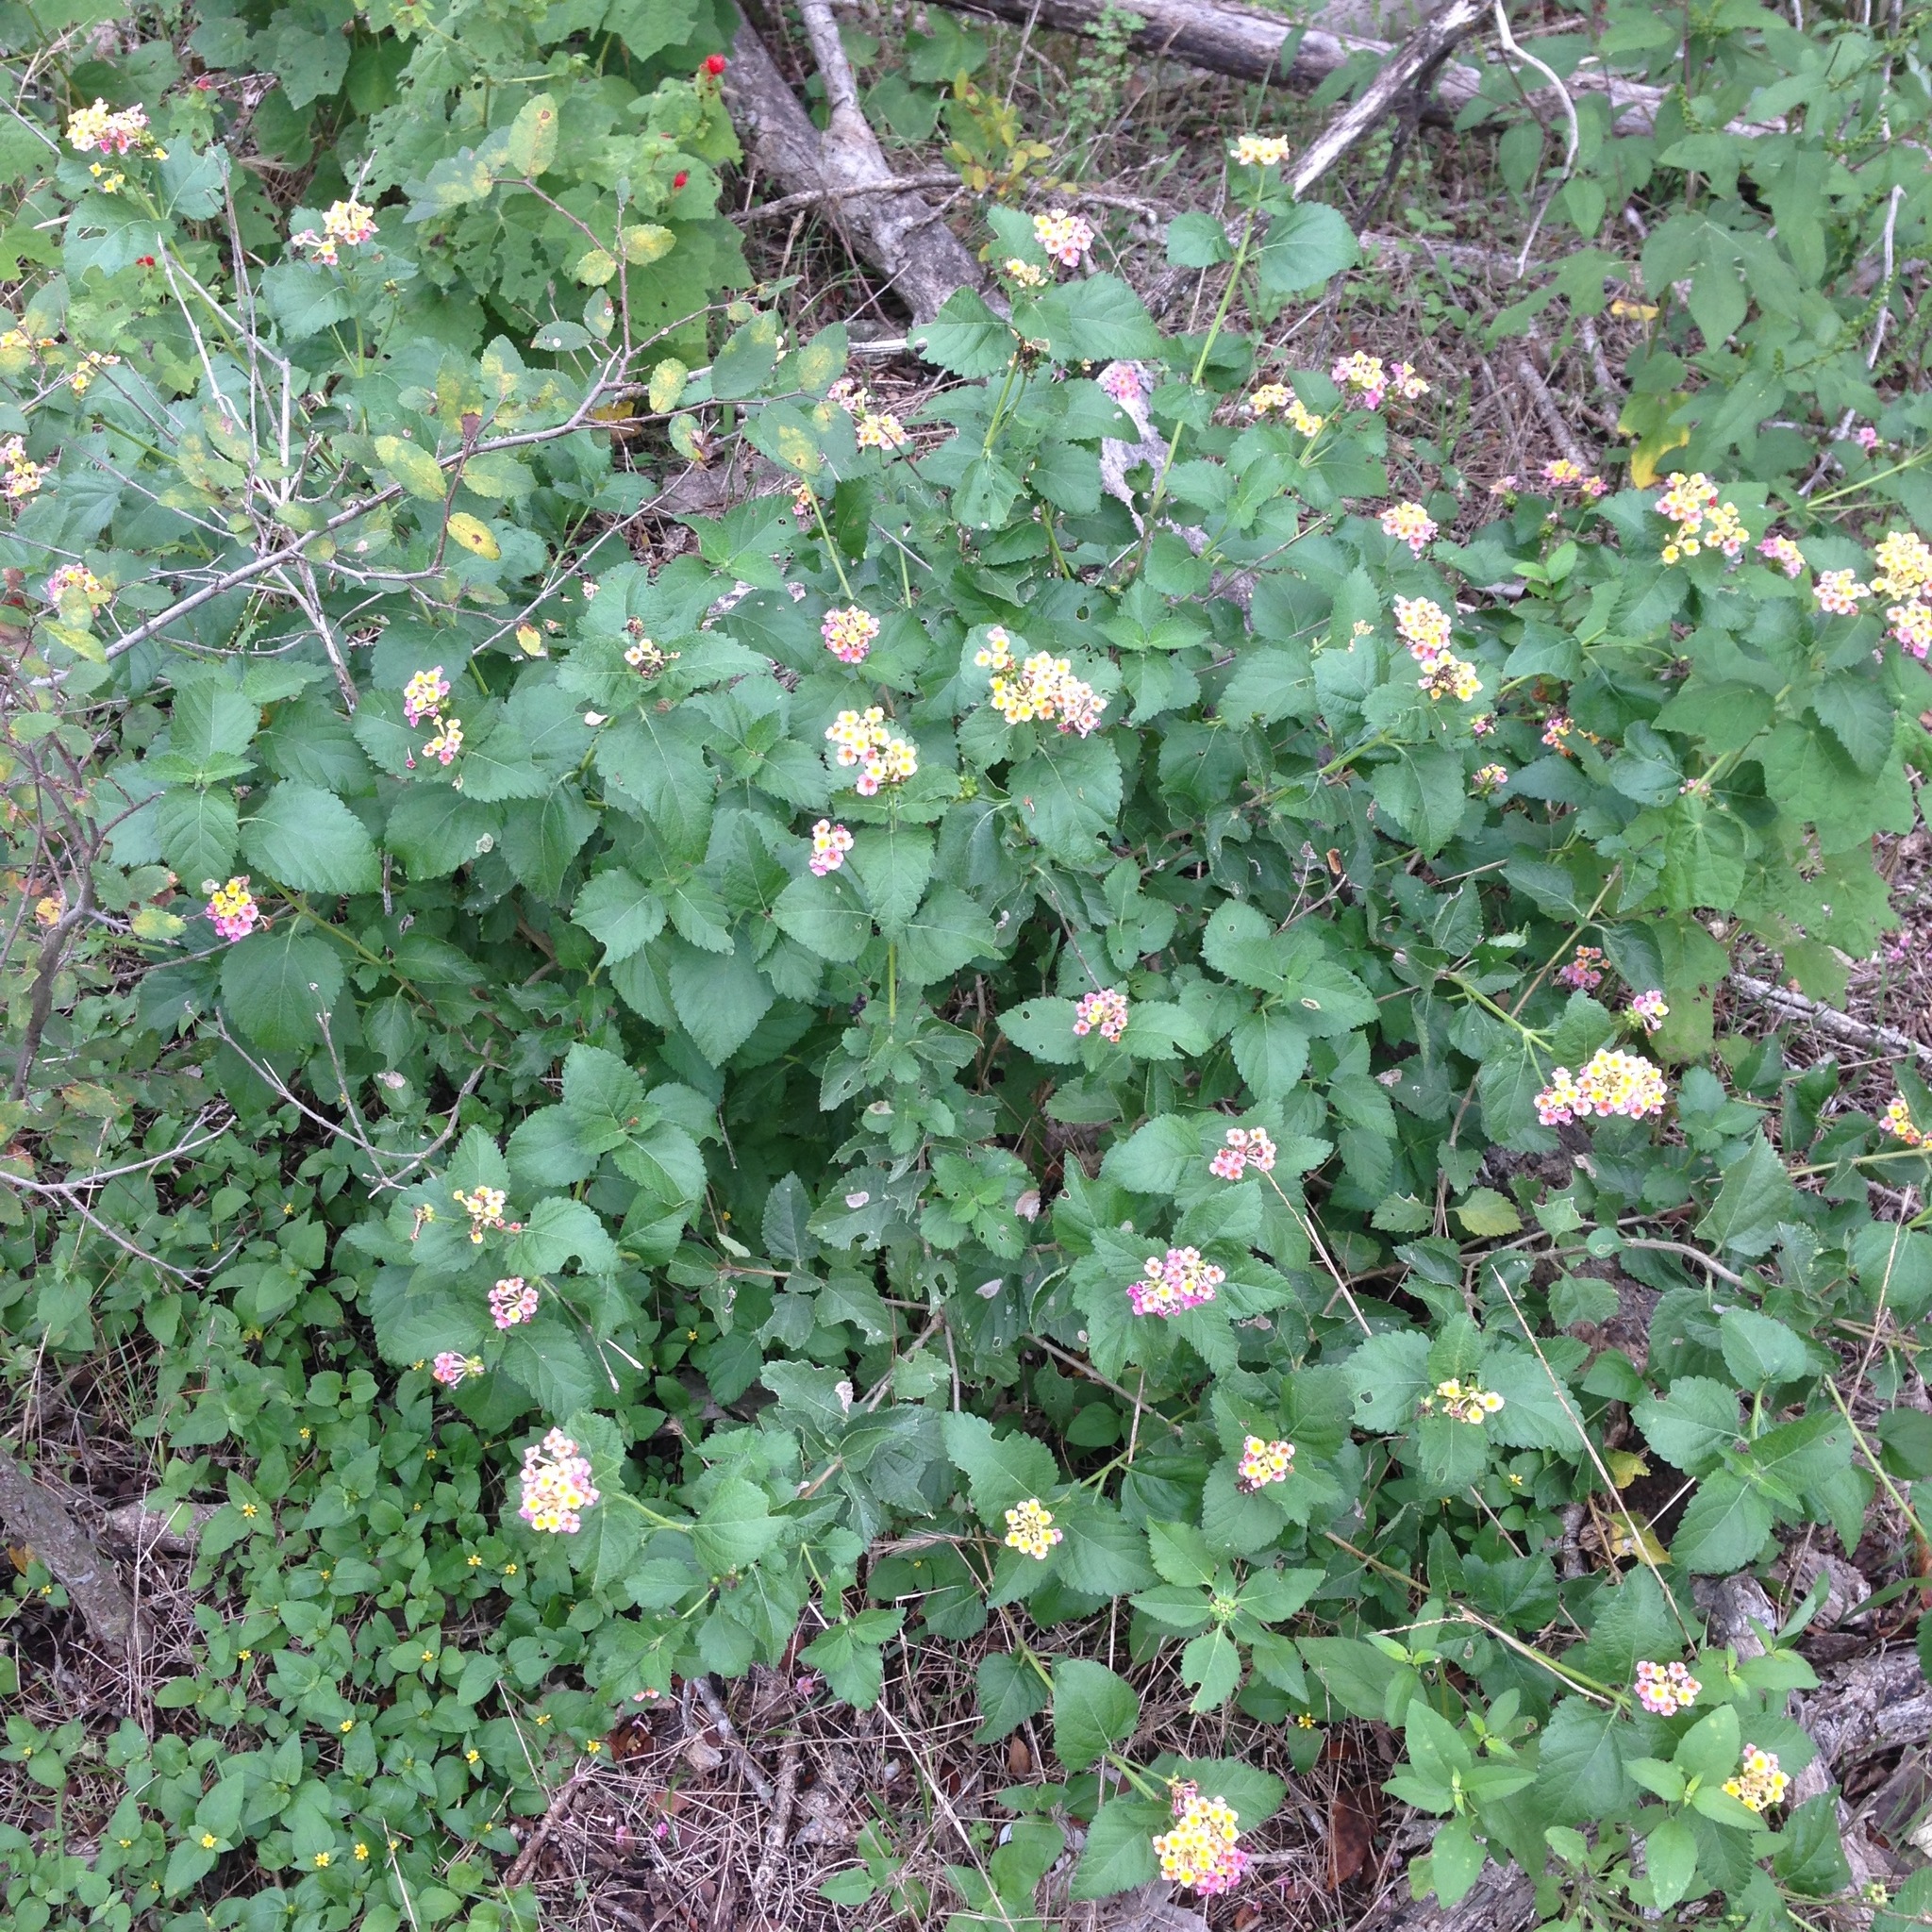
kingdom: Plantae
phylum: Tracheophyta
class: Magnoliopsida
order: Lamiales
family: Verbenaceae
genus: Lantana
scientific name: Lantana strigocamara
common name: Lantana
